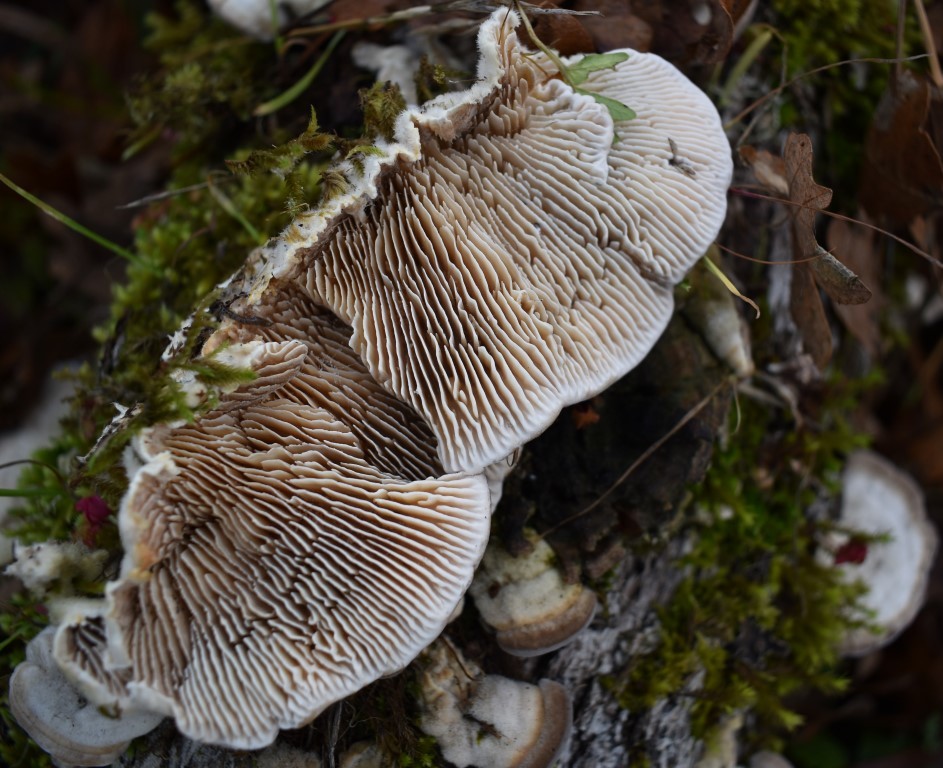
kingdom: Fungi
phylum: Basidiomycota
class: Agaricomycetes
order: Polyporales
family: Polyporaceae
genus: Lenzites
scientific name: Lenzites betulinus
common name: Birch mazegill
